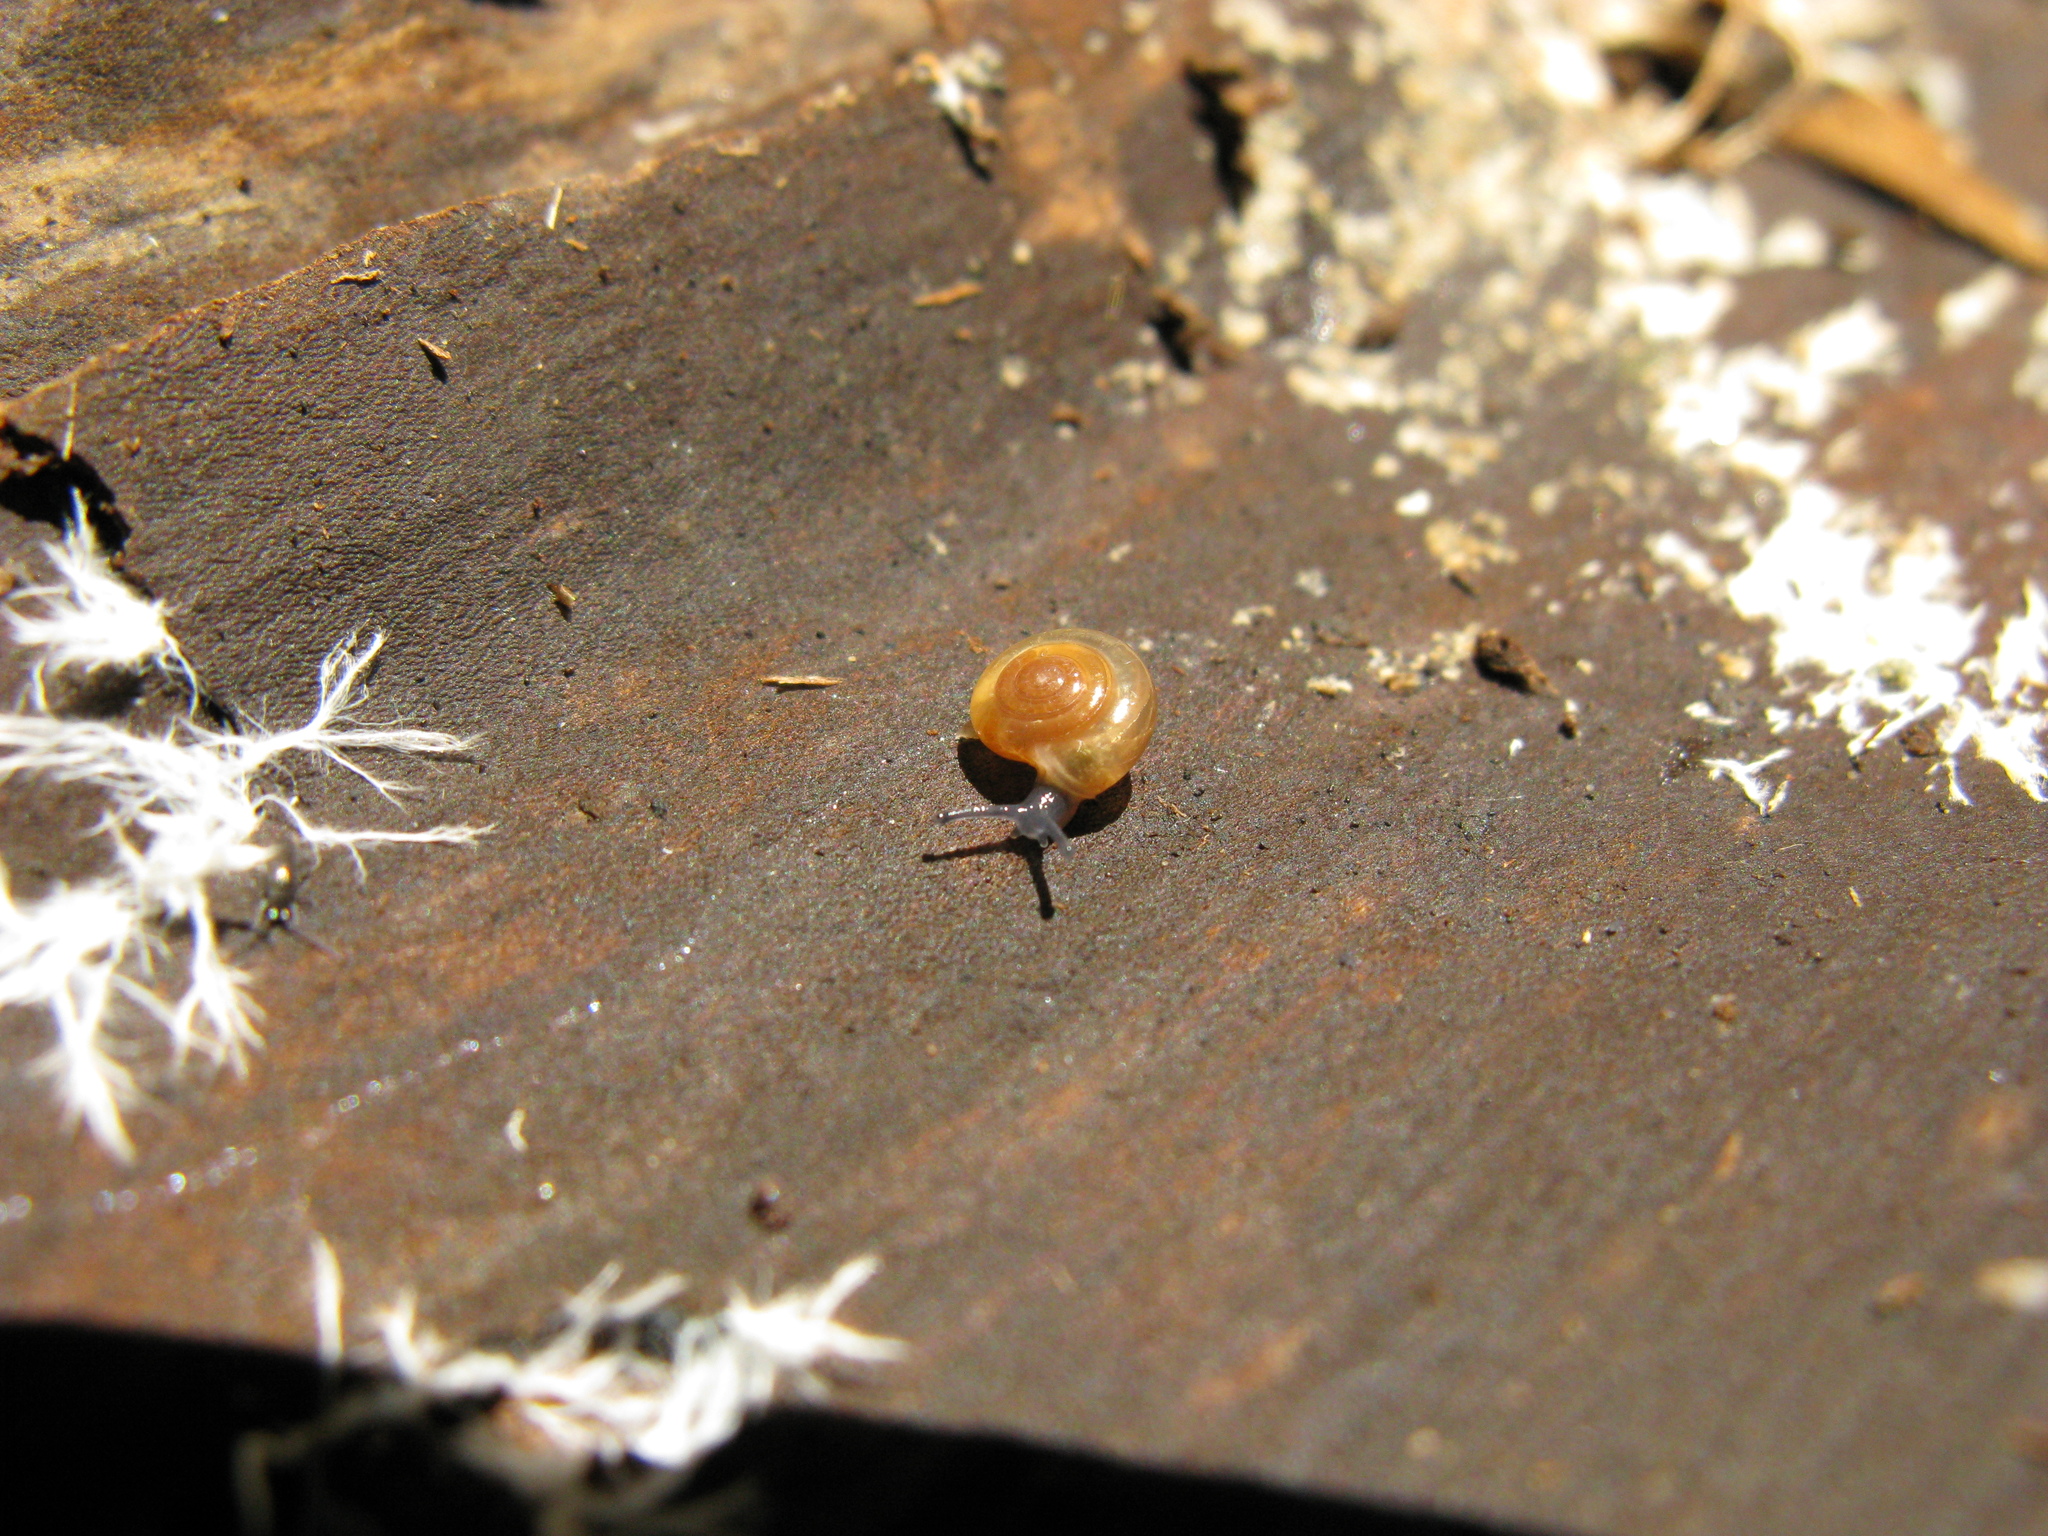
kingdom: Animalia
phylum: Mollusca
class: Gastropoda
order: Stylommatophora
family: Oxychilidae
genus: Oxychilus
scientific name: Oxychilus diaphanellus
